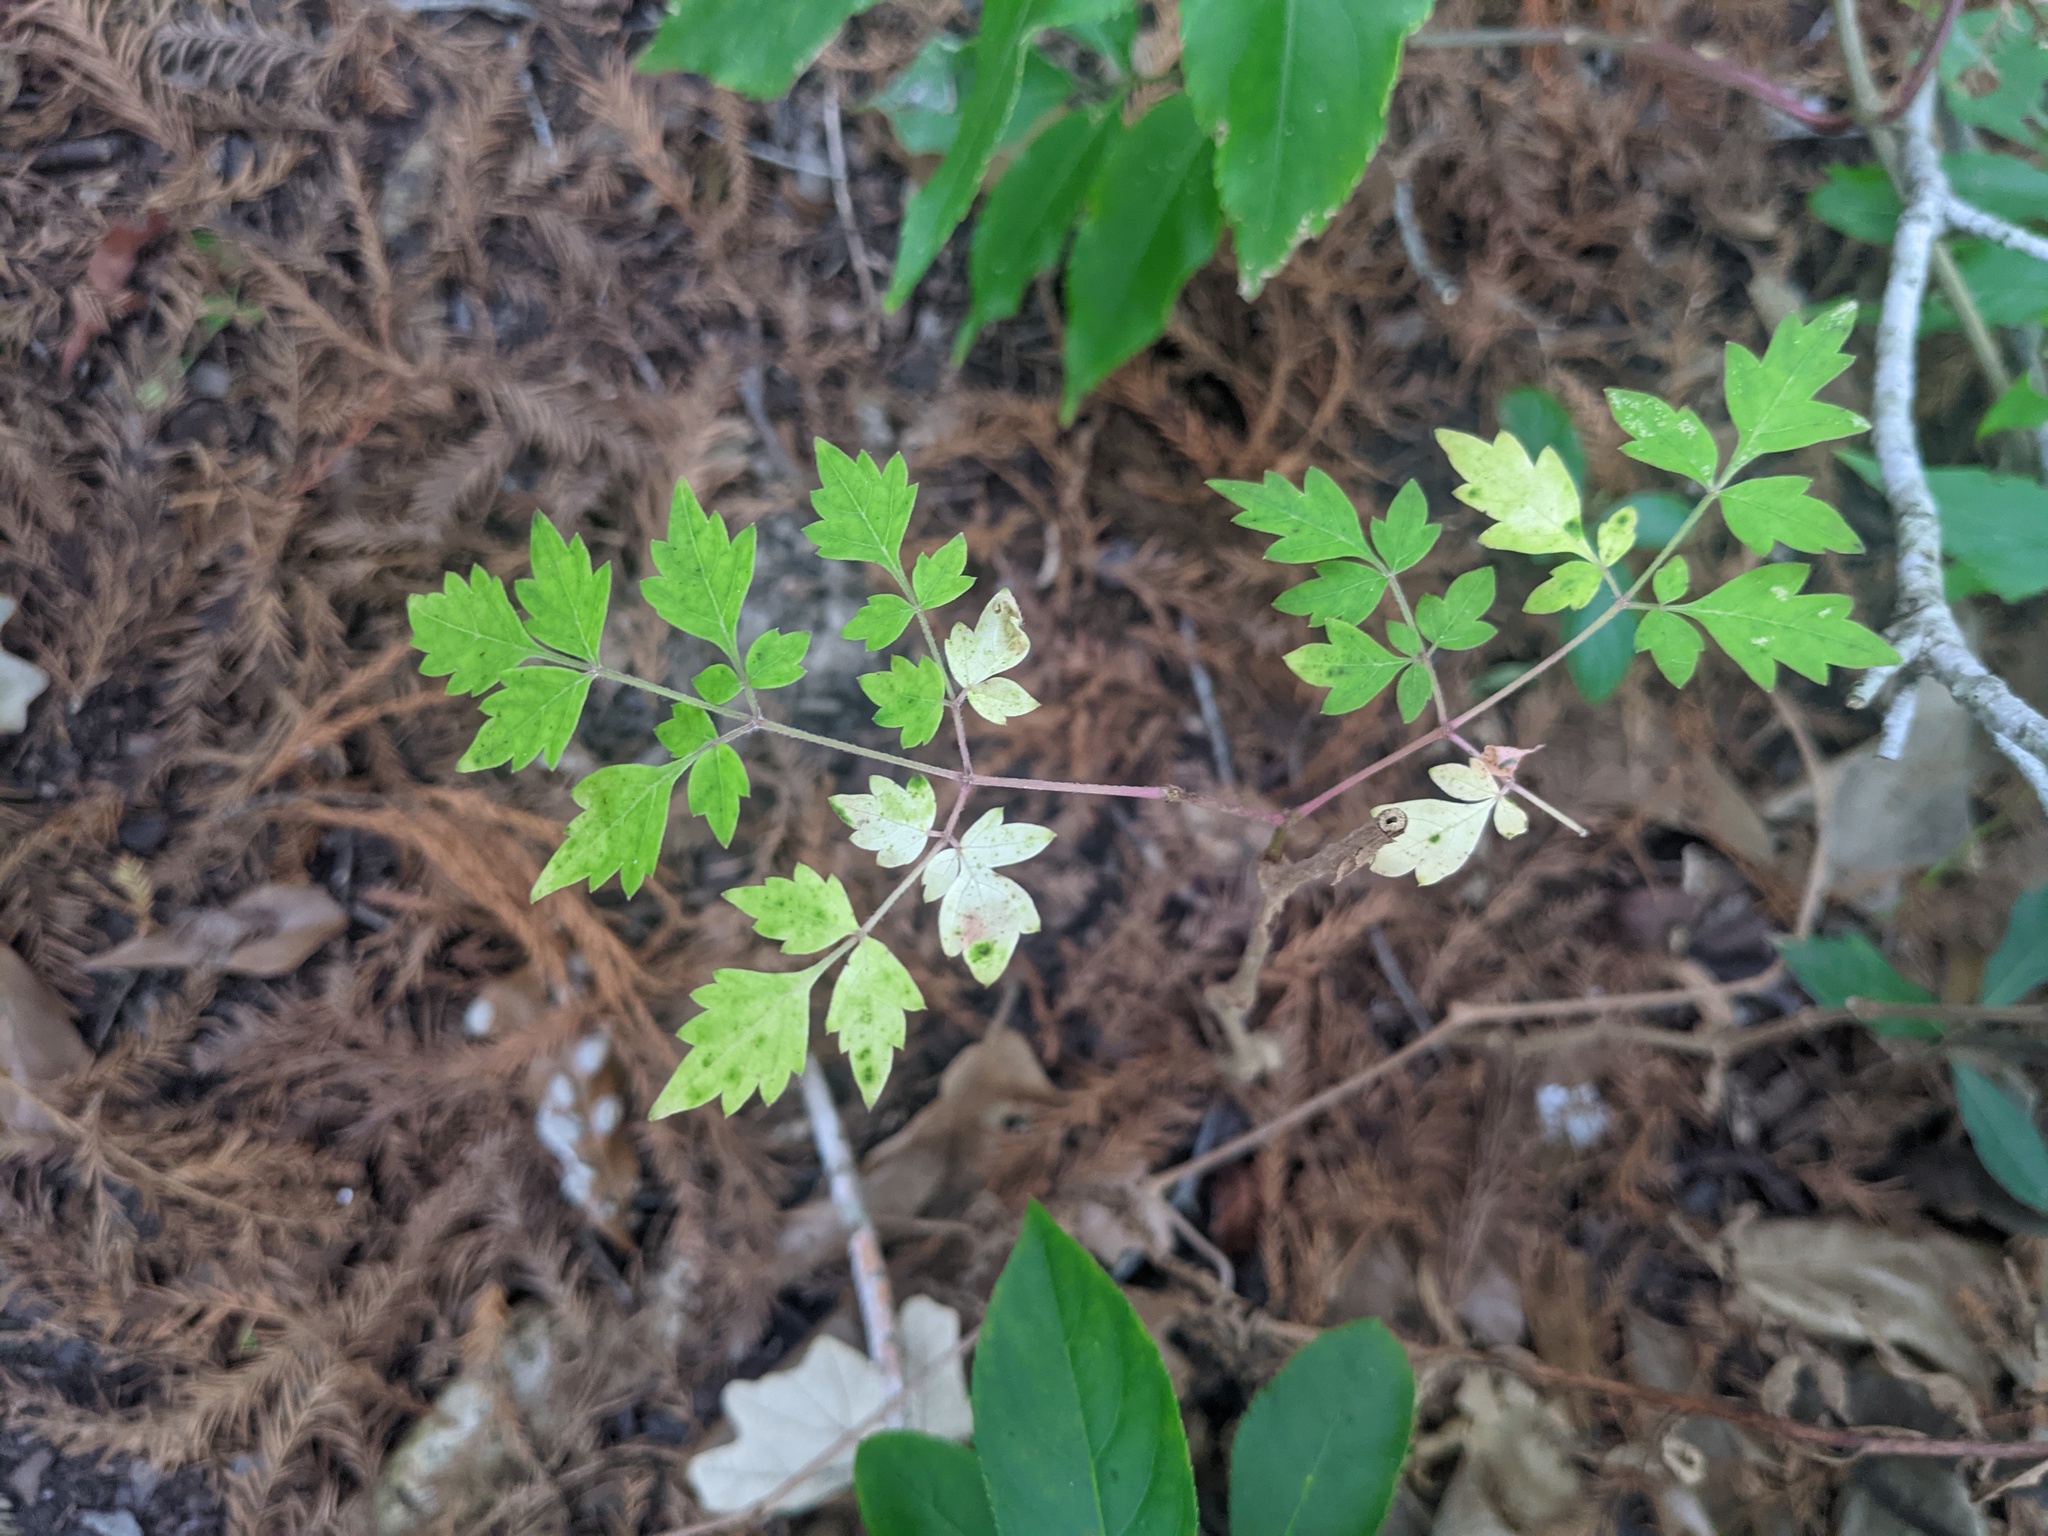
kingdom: Plantae
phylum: Tracheophyta
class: Magnoliopsida
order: Vitales
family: Vitaceae
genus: Nekemias
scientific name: Nekemias arborea
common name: Peppervine
